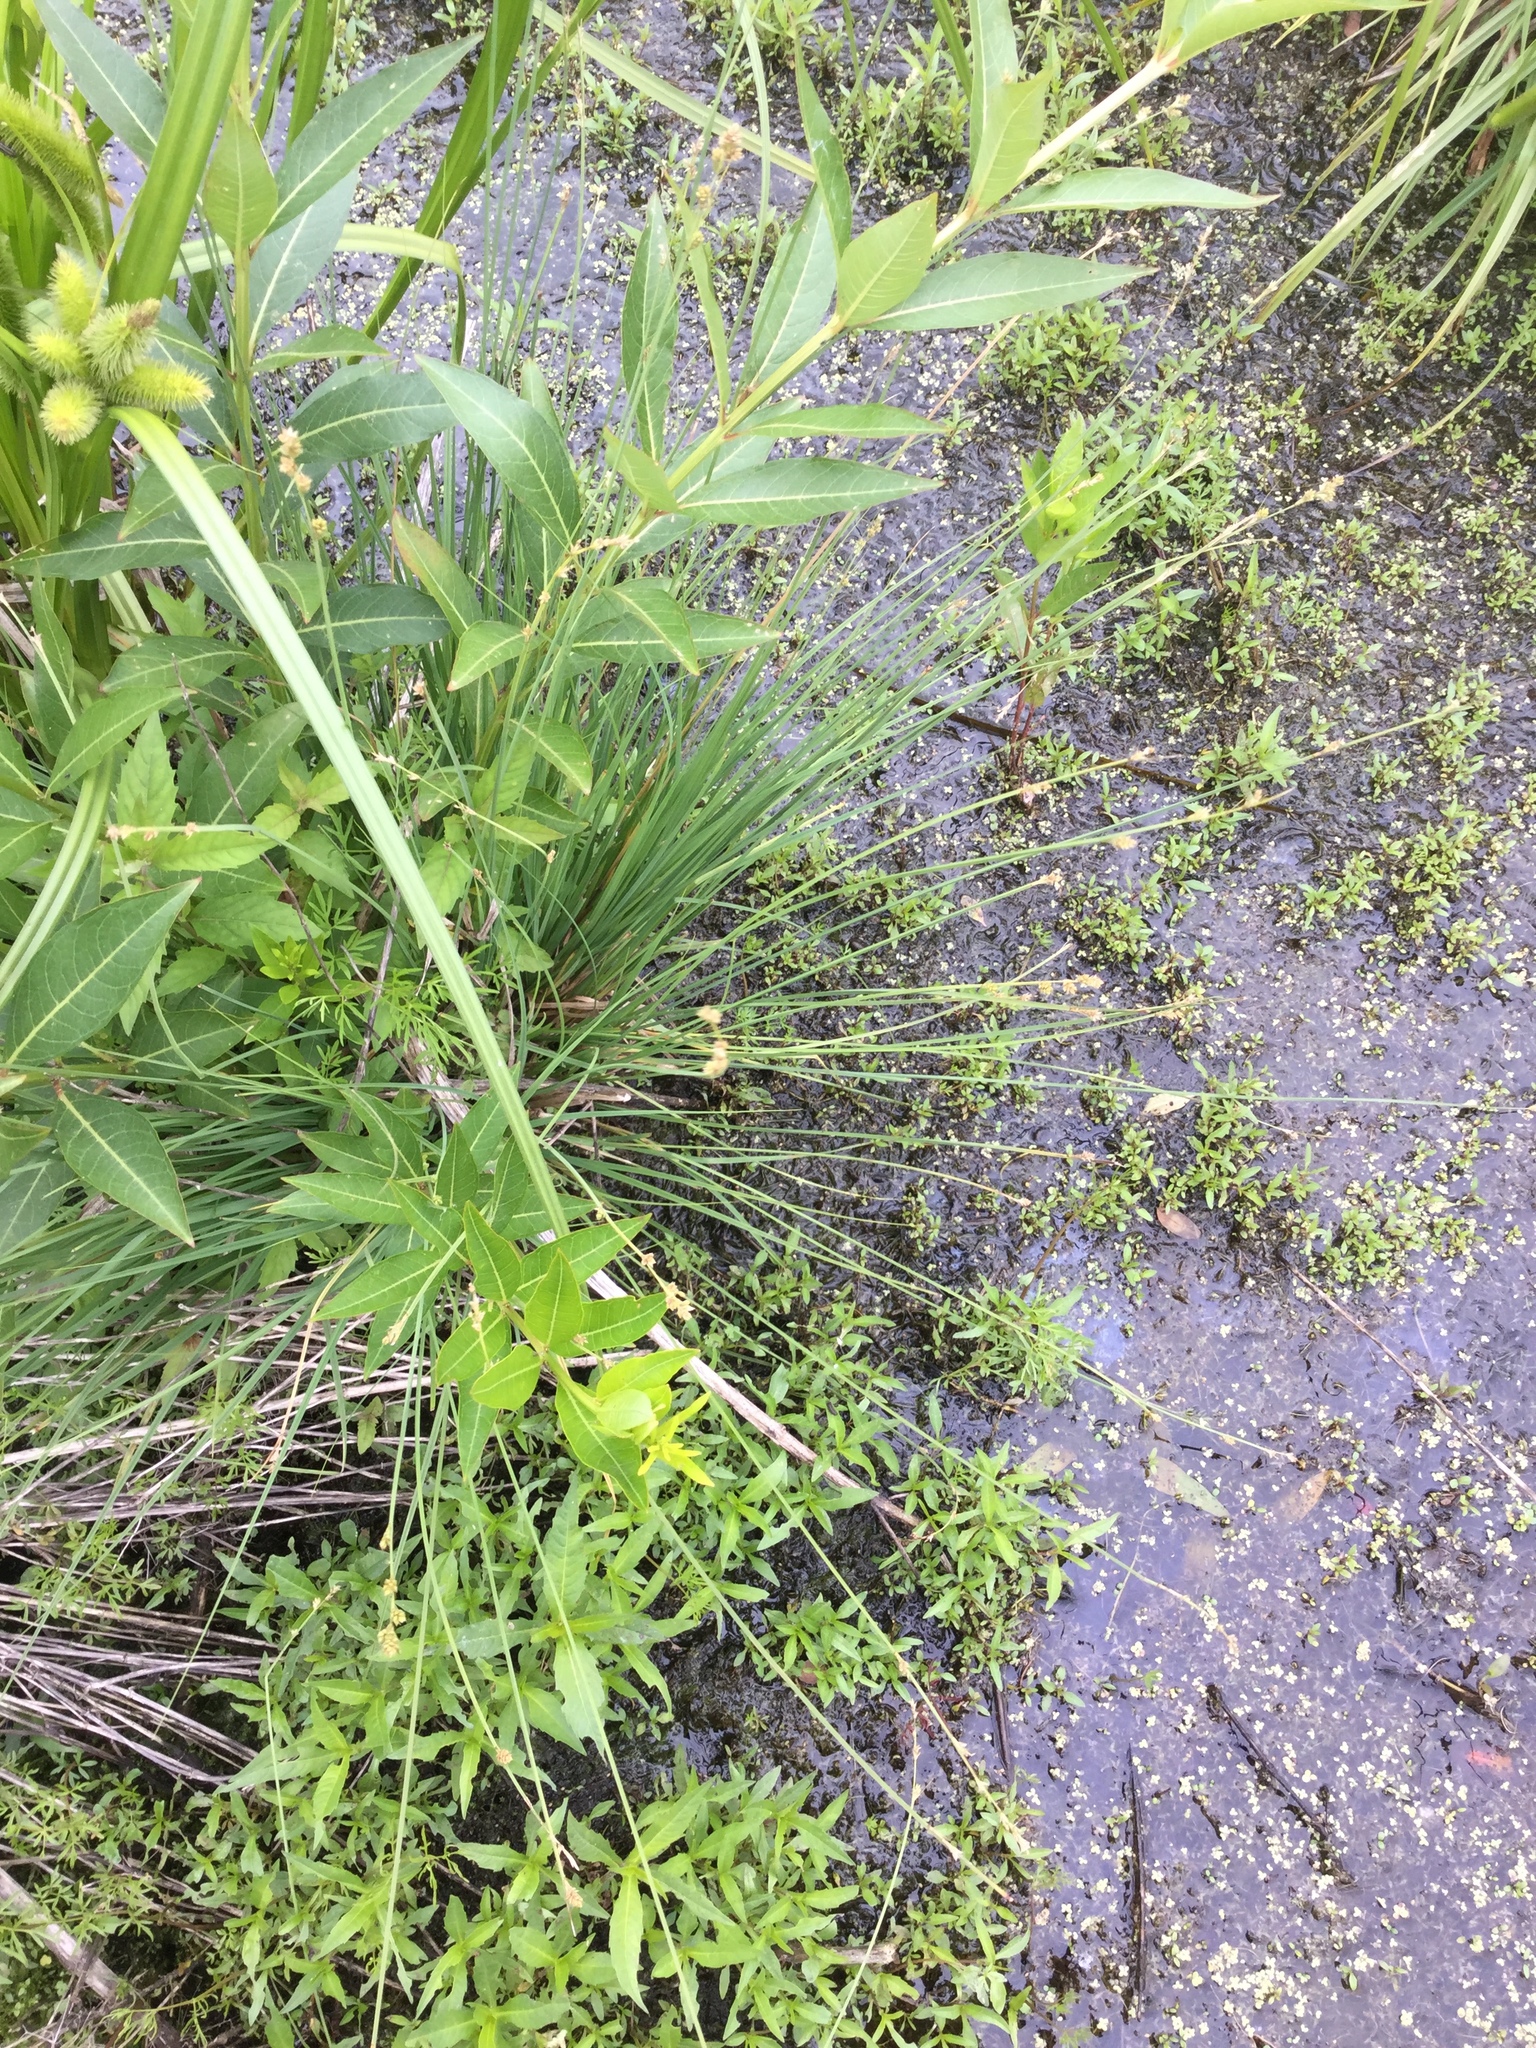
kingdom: Plantae
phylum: Tracheophyta
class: Liliopsida
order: Poales
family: Cyperaceae
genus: Carex
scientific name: Carex canescens
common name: White sedge
